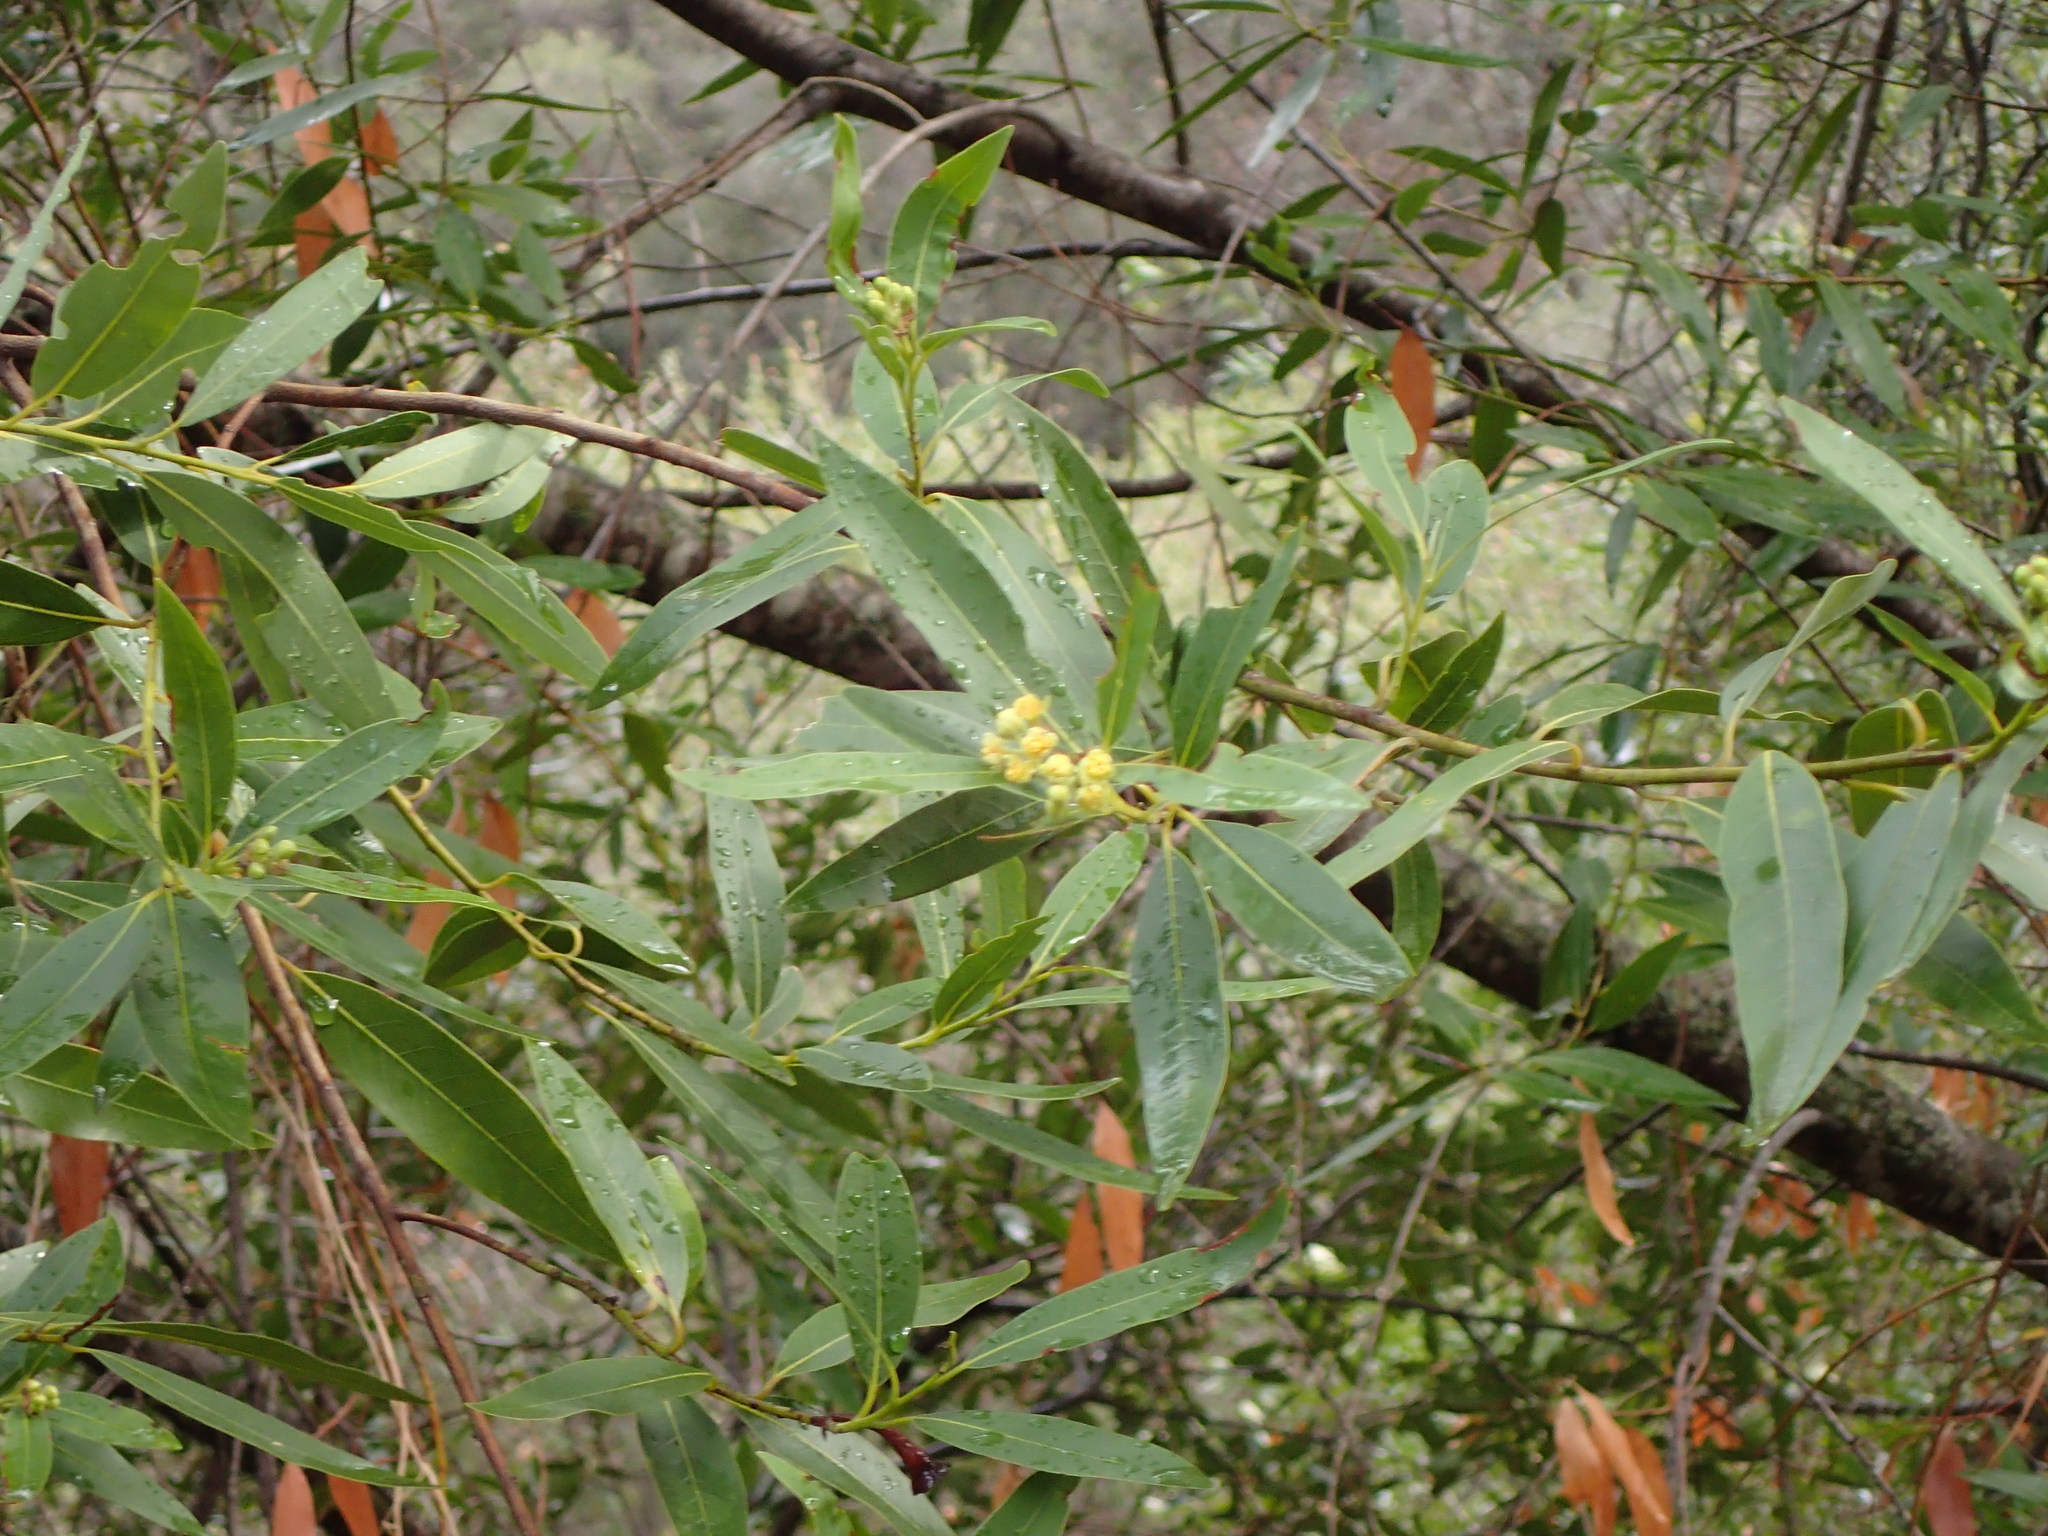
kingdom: Plantae
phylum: Tracheophyta
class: Magnoliopsida
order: Laurales
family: Lauraceae
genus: Umbellularia
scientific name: Umbellularia californica
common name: California bay
